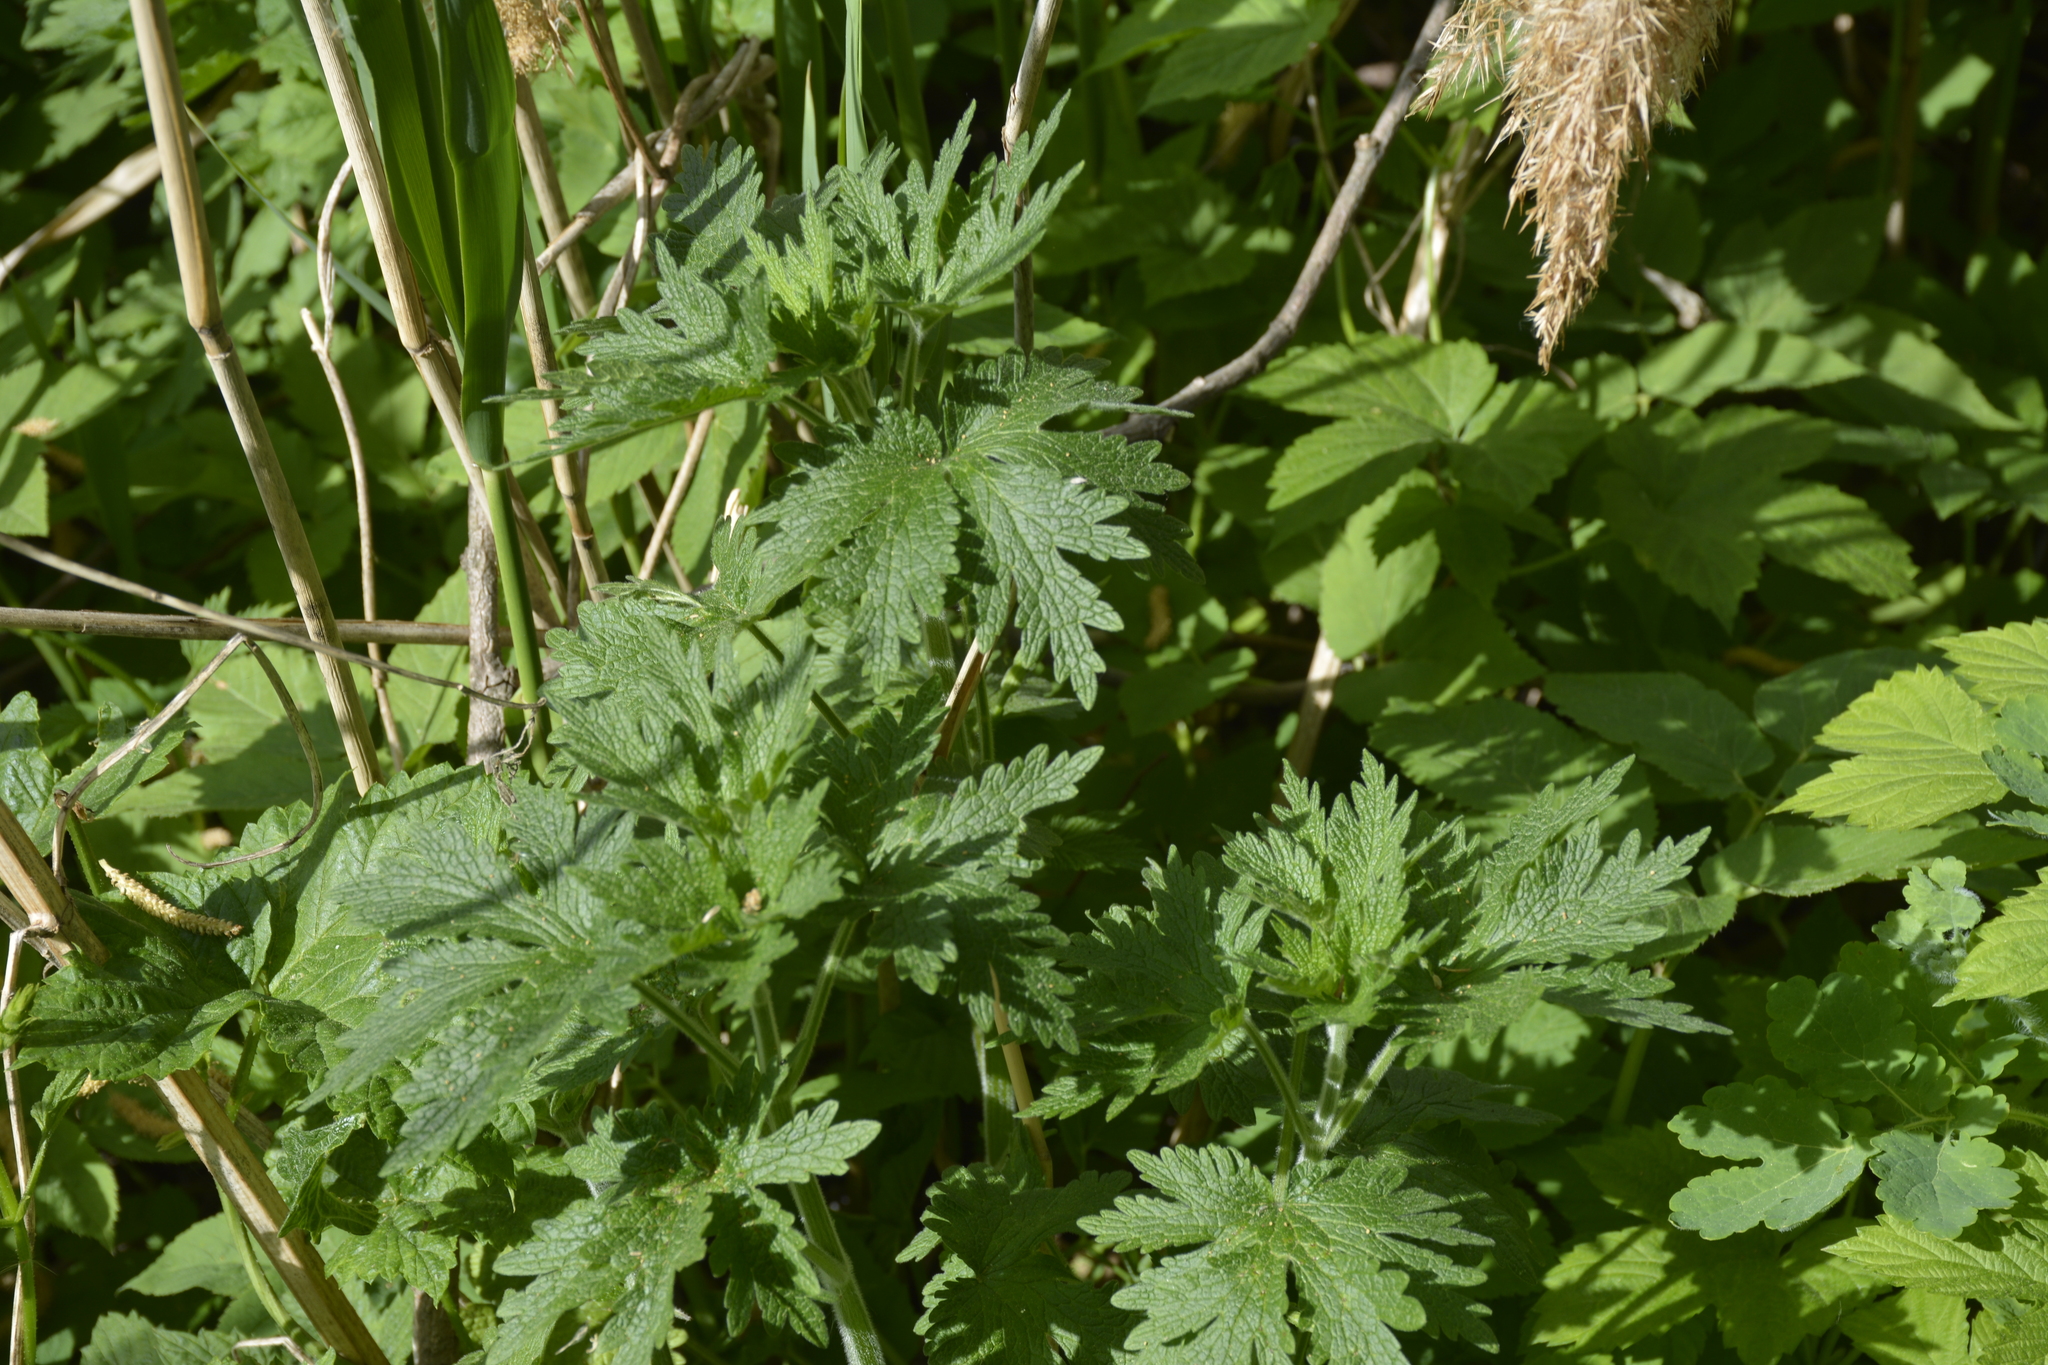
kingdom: Plantae
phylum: Tracheophyta
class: Magnoliopsida
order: Lamiales
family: Lamiaceae
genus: Leonurus
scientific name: Leonurus quinquelobatus
